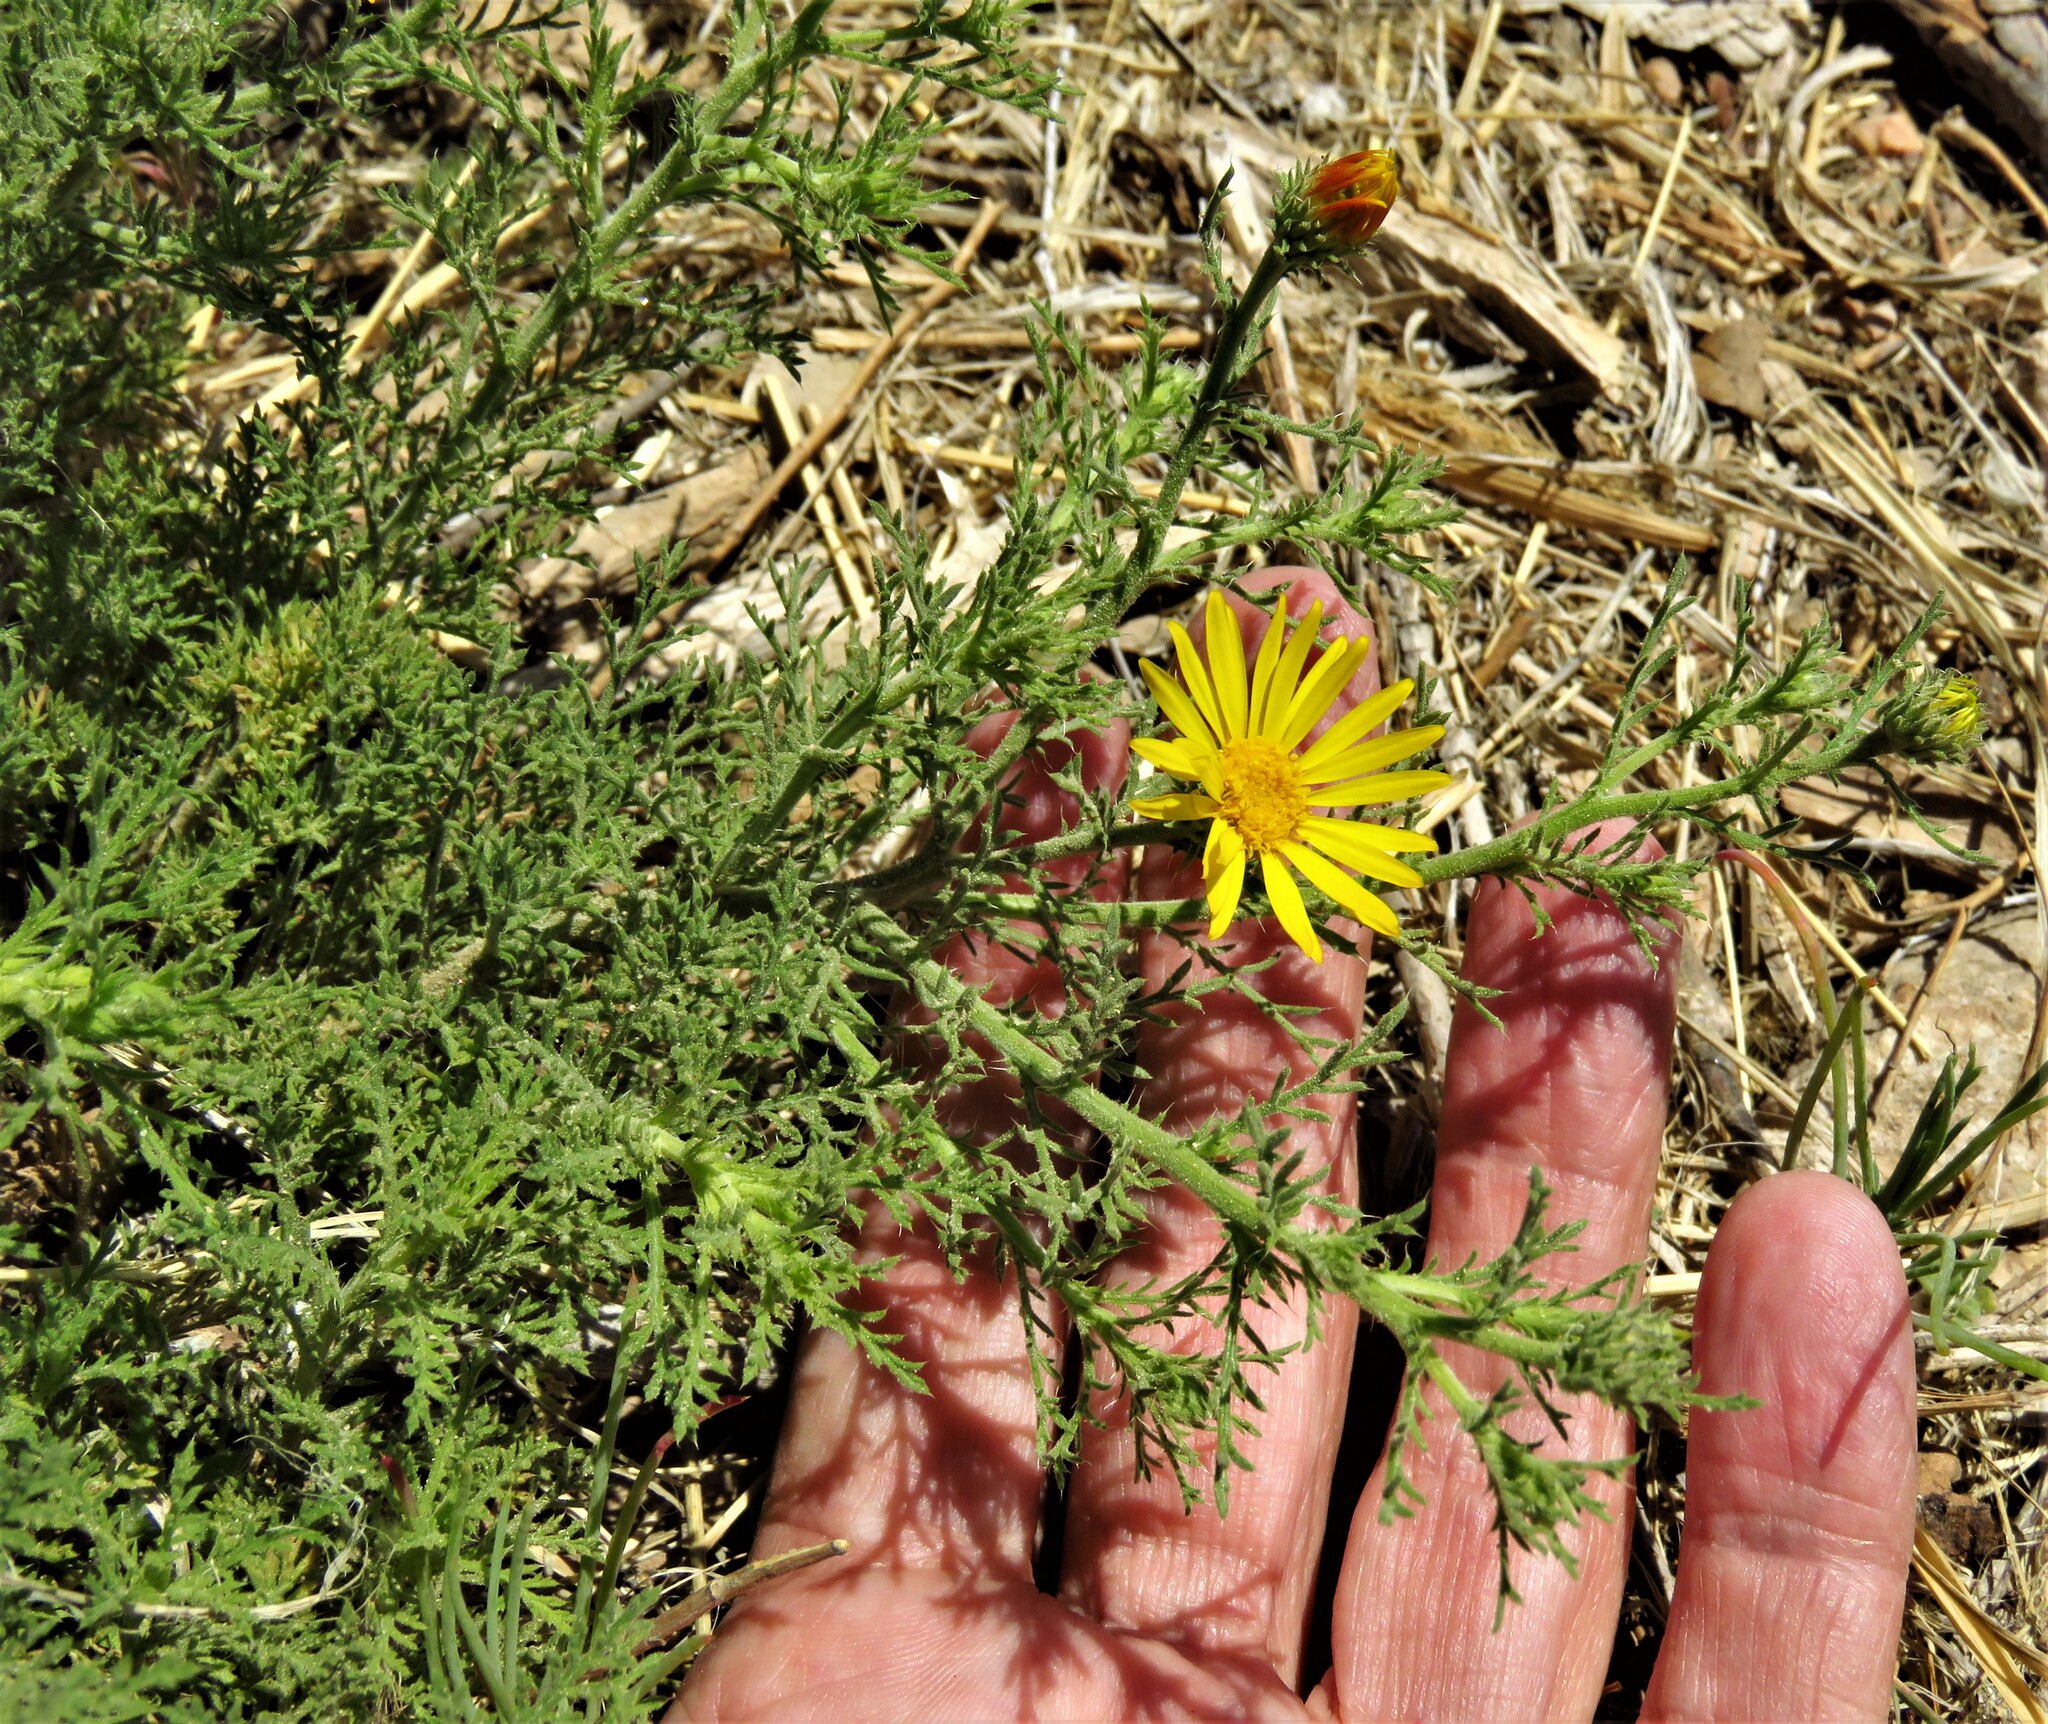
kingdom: Plantae
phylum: Tracheophyta
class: Magnoliopsida
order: Asterales
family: Asteraceae
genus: Xanthisma
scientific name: Xanthisma spinulosum
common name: Spiny goldenweed
